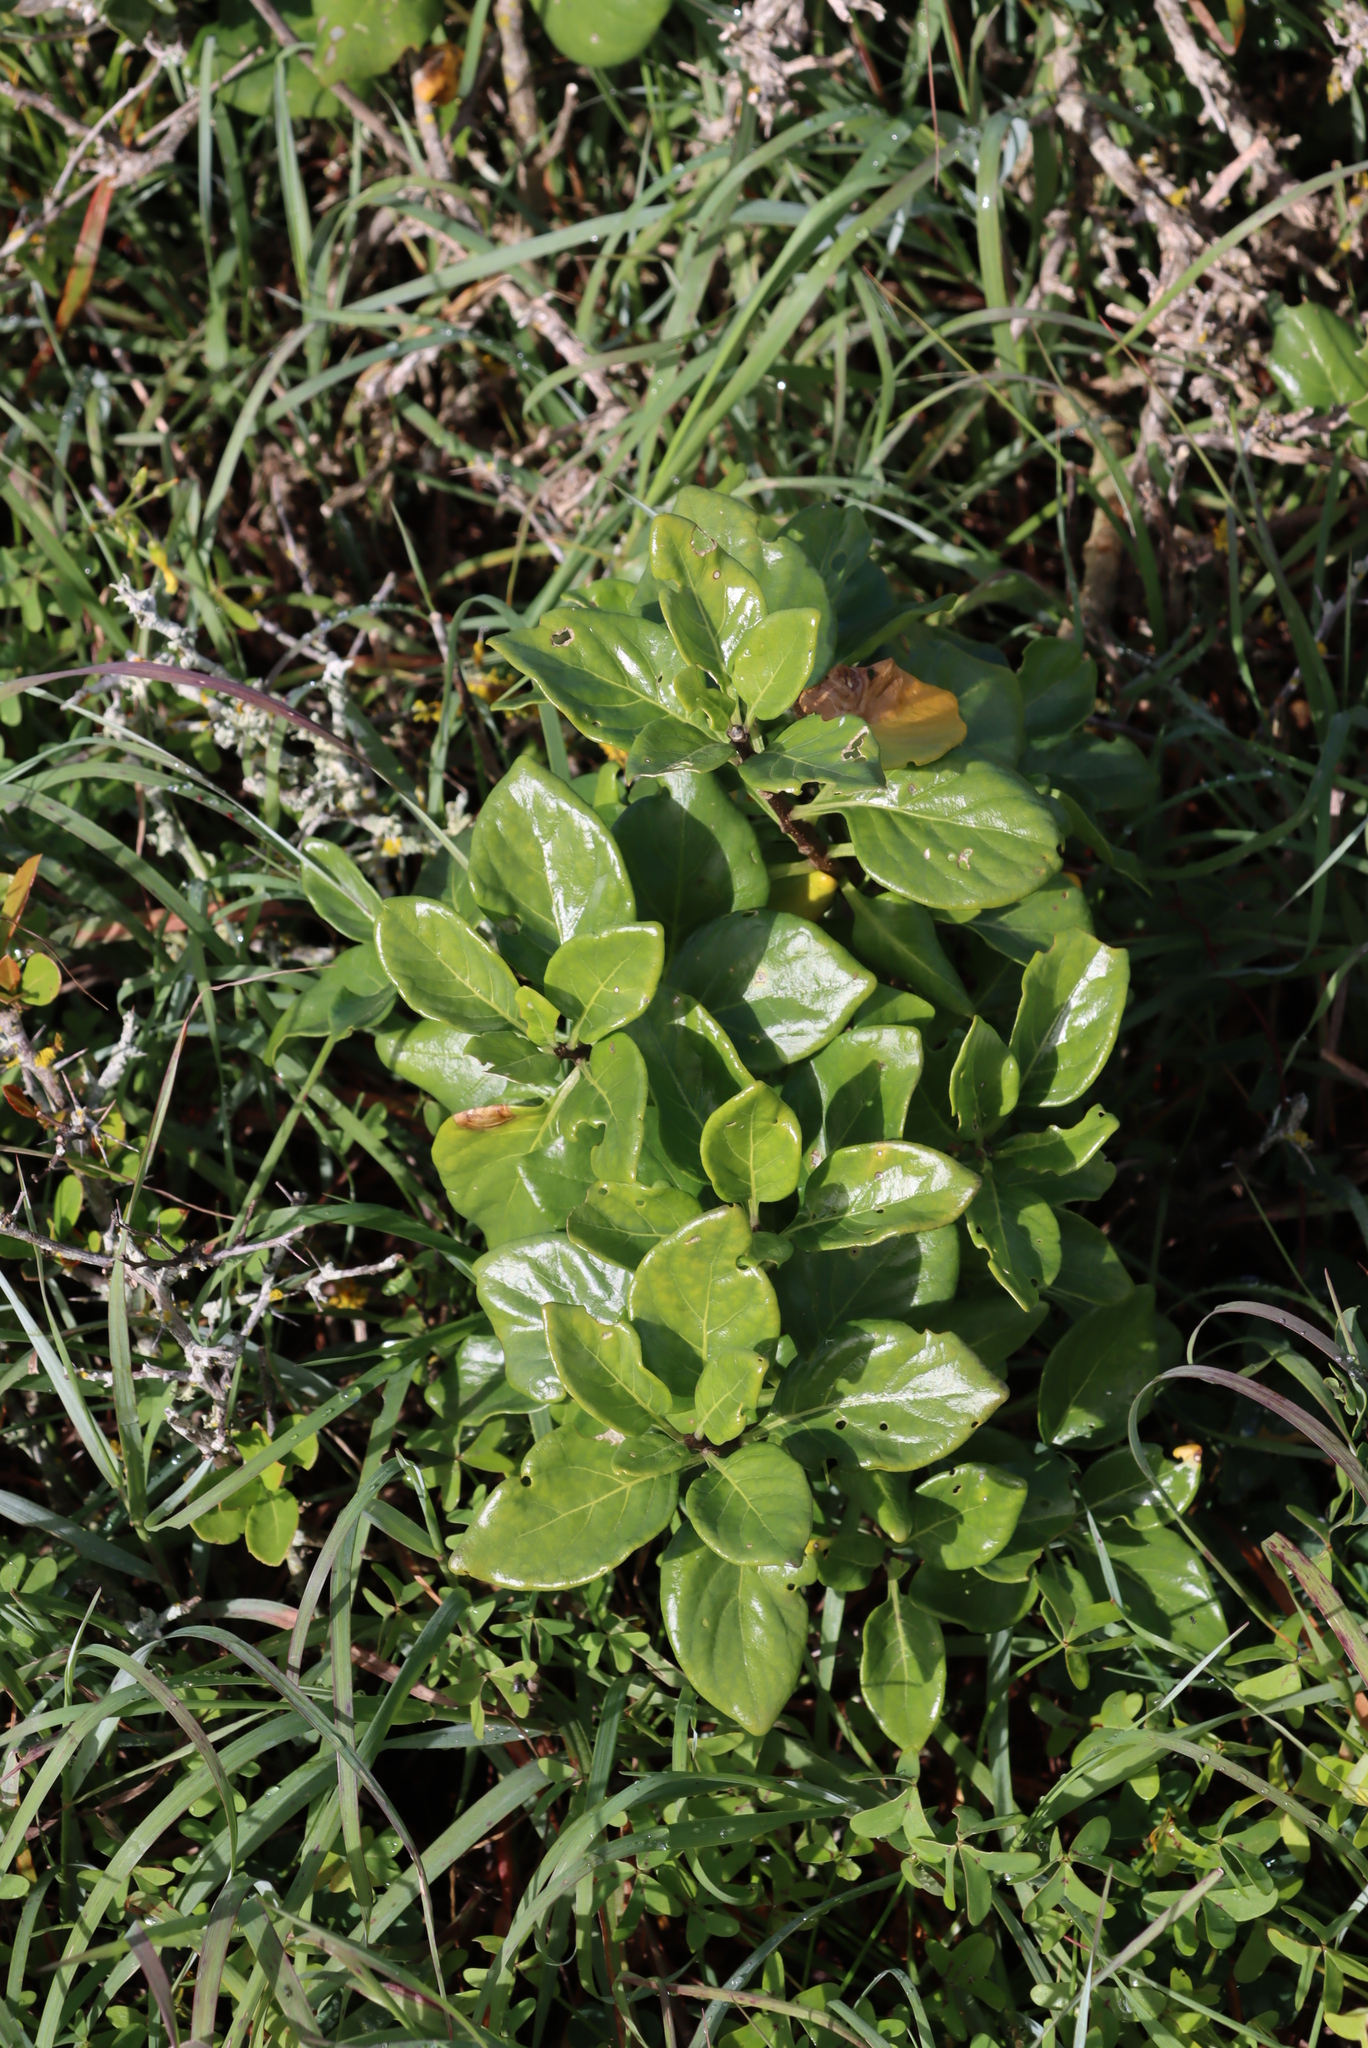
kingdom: Plantae
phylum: Tracheophyta
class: Magnoliopsida
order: Solanales
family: Solanaceae
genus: Solanum
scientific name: Solanum guineense
